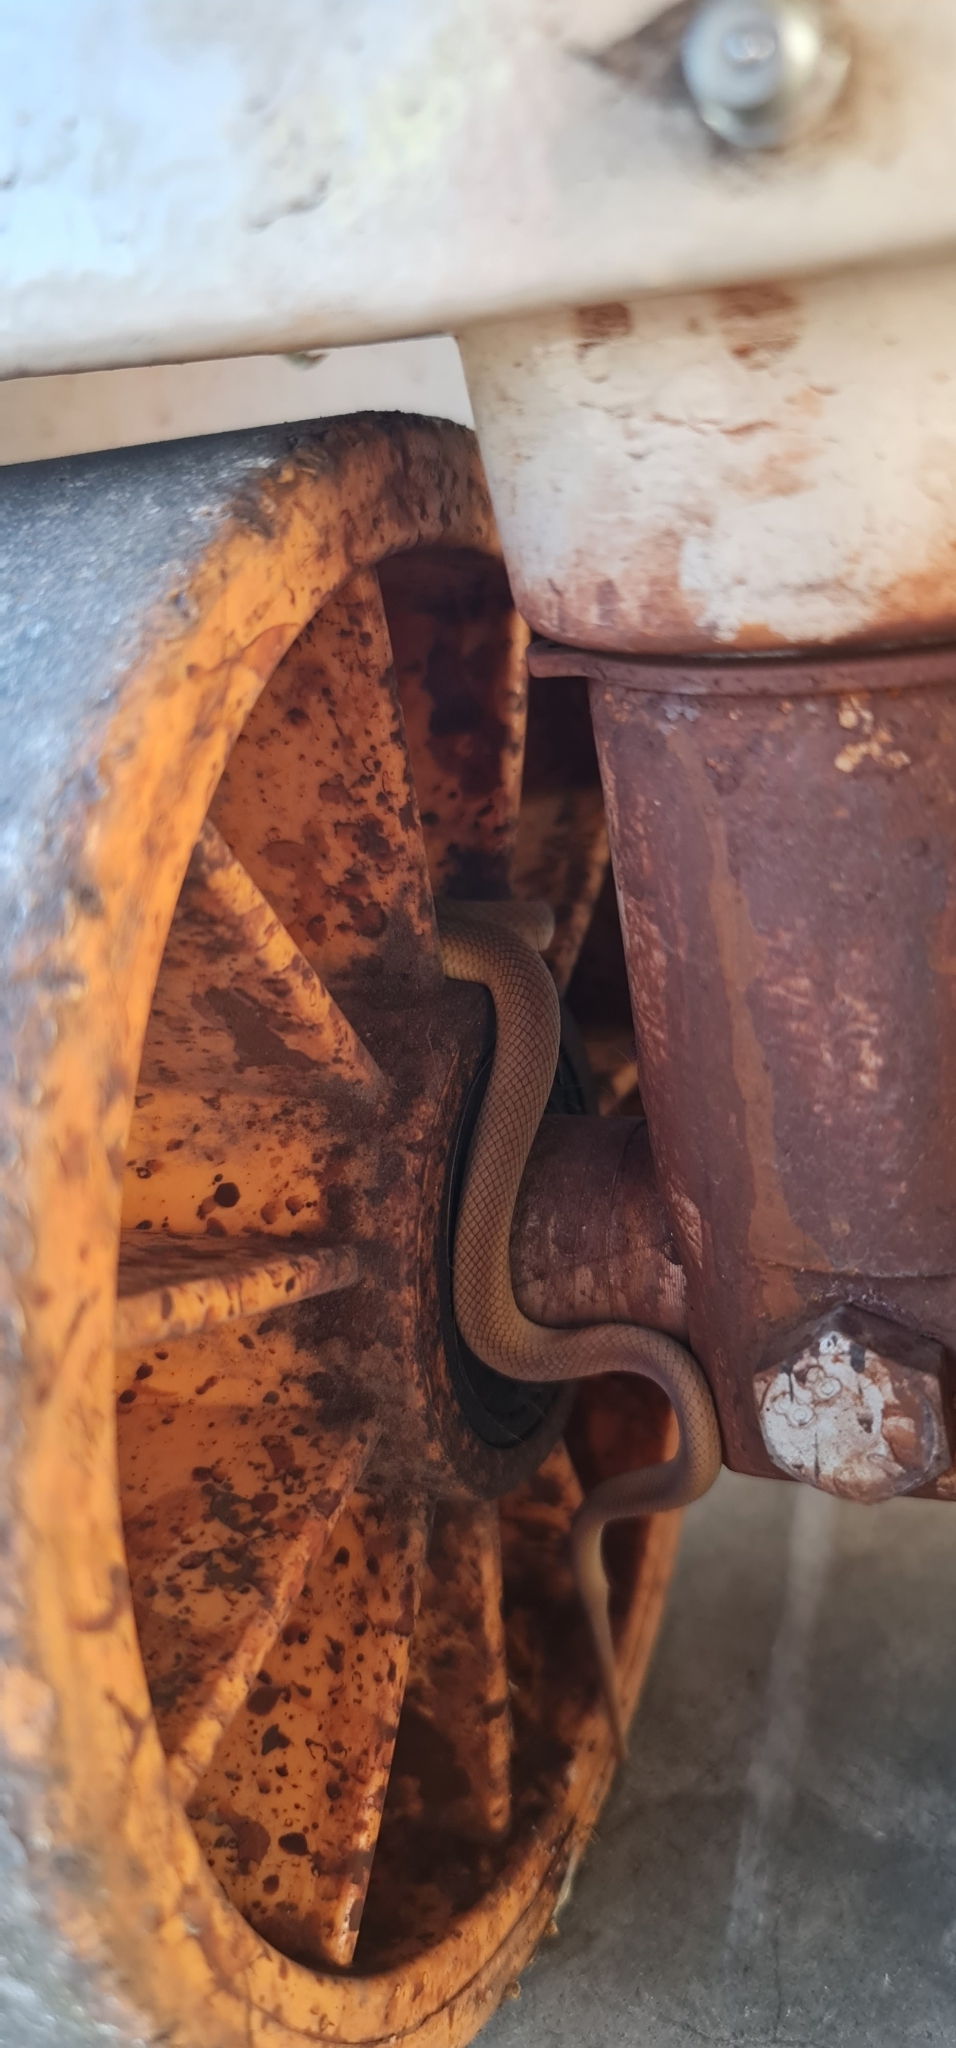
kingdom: Animalia
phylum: Chordata
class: Squamata
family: Elapidae
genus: Pseudonaja
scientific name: Pseudonaja textilis
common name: Eastern brown snake
